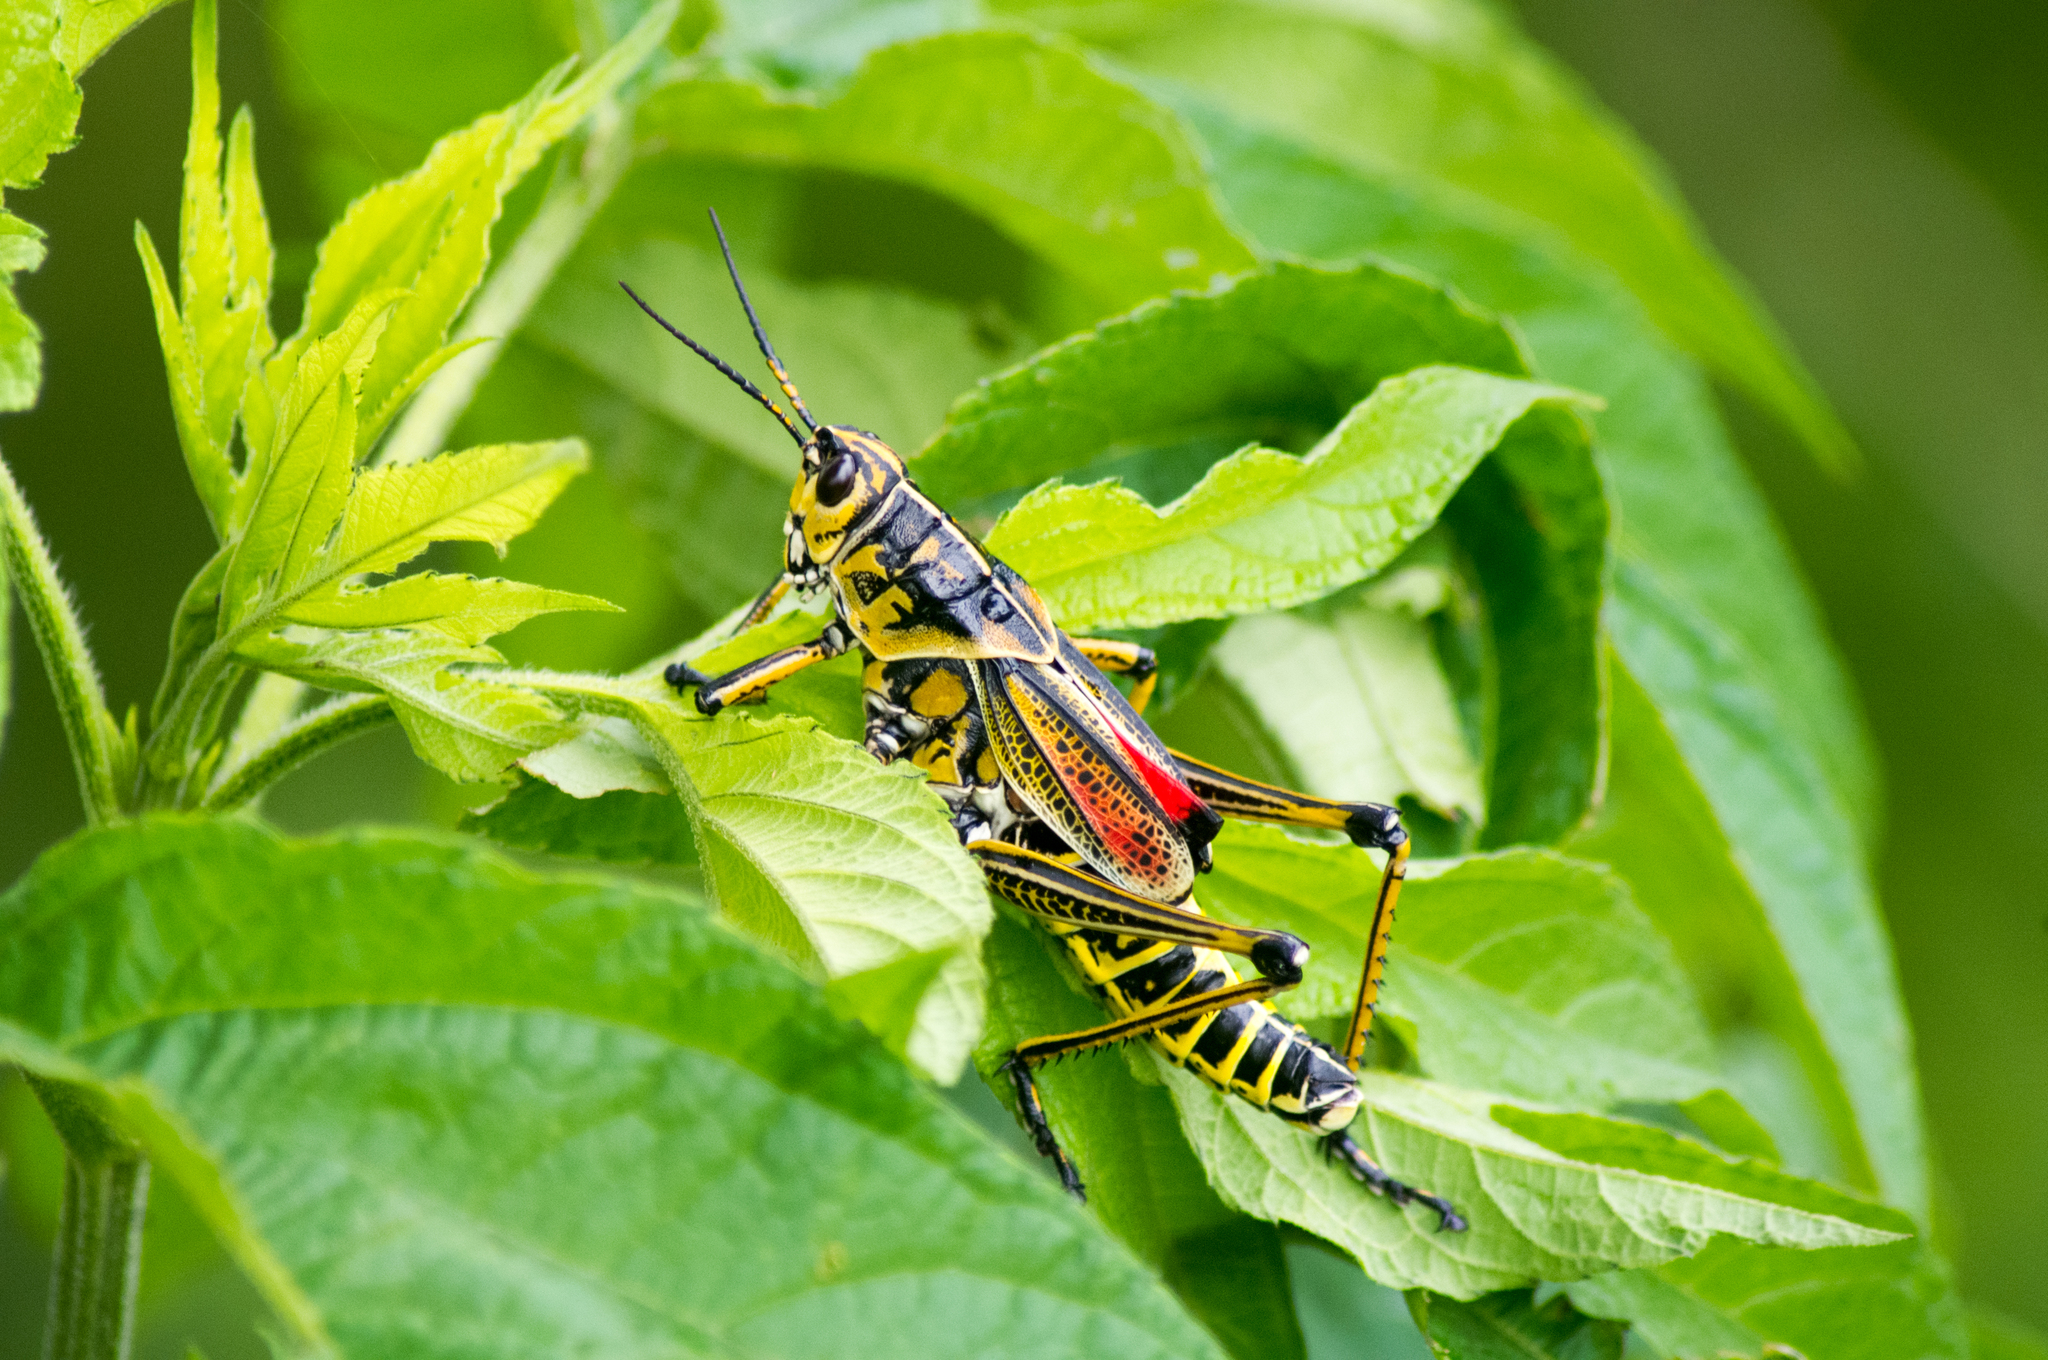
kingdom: Animalia
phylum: Arthropoda
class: Insecta
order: Orthoptera
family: Romaleidae
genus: Romalea
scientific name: Romalea microptera
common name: Eastern lubber grasshopper
